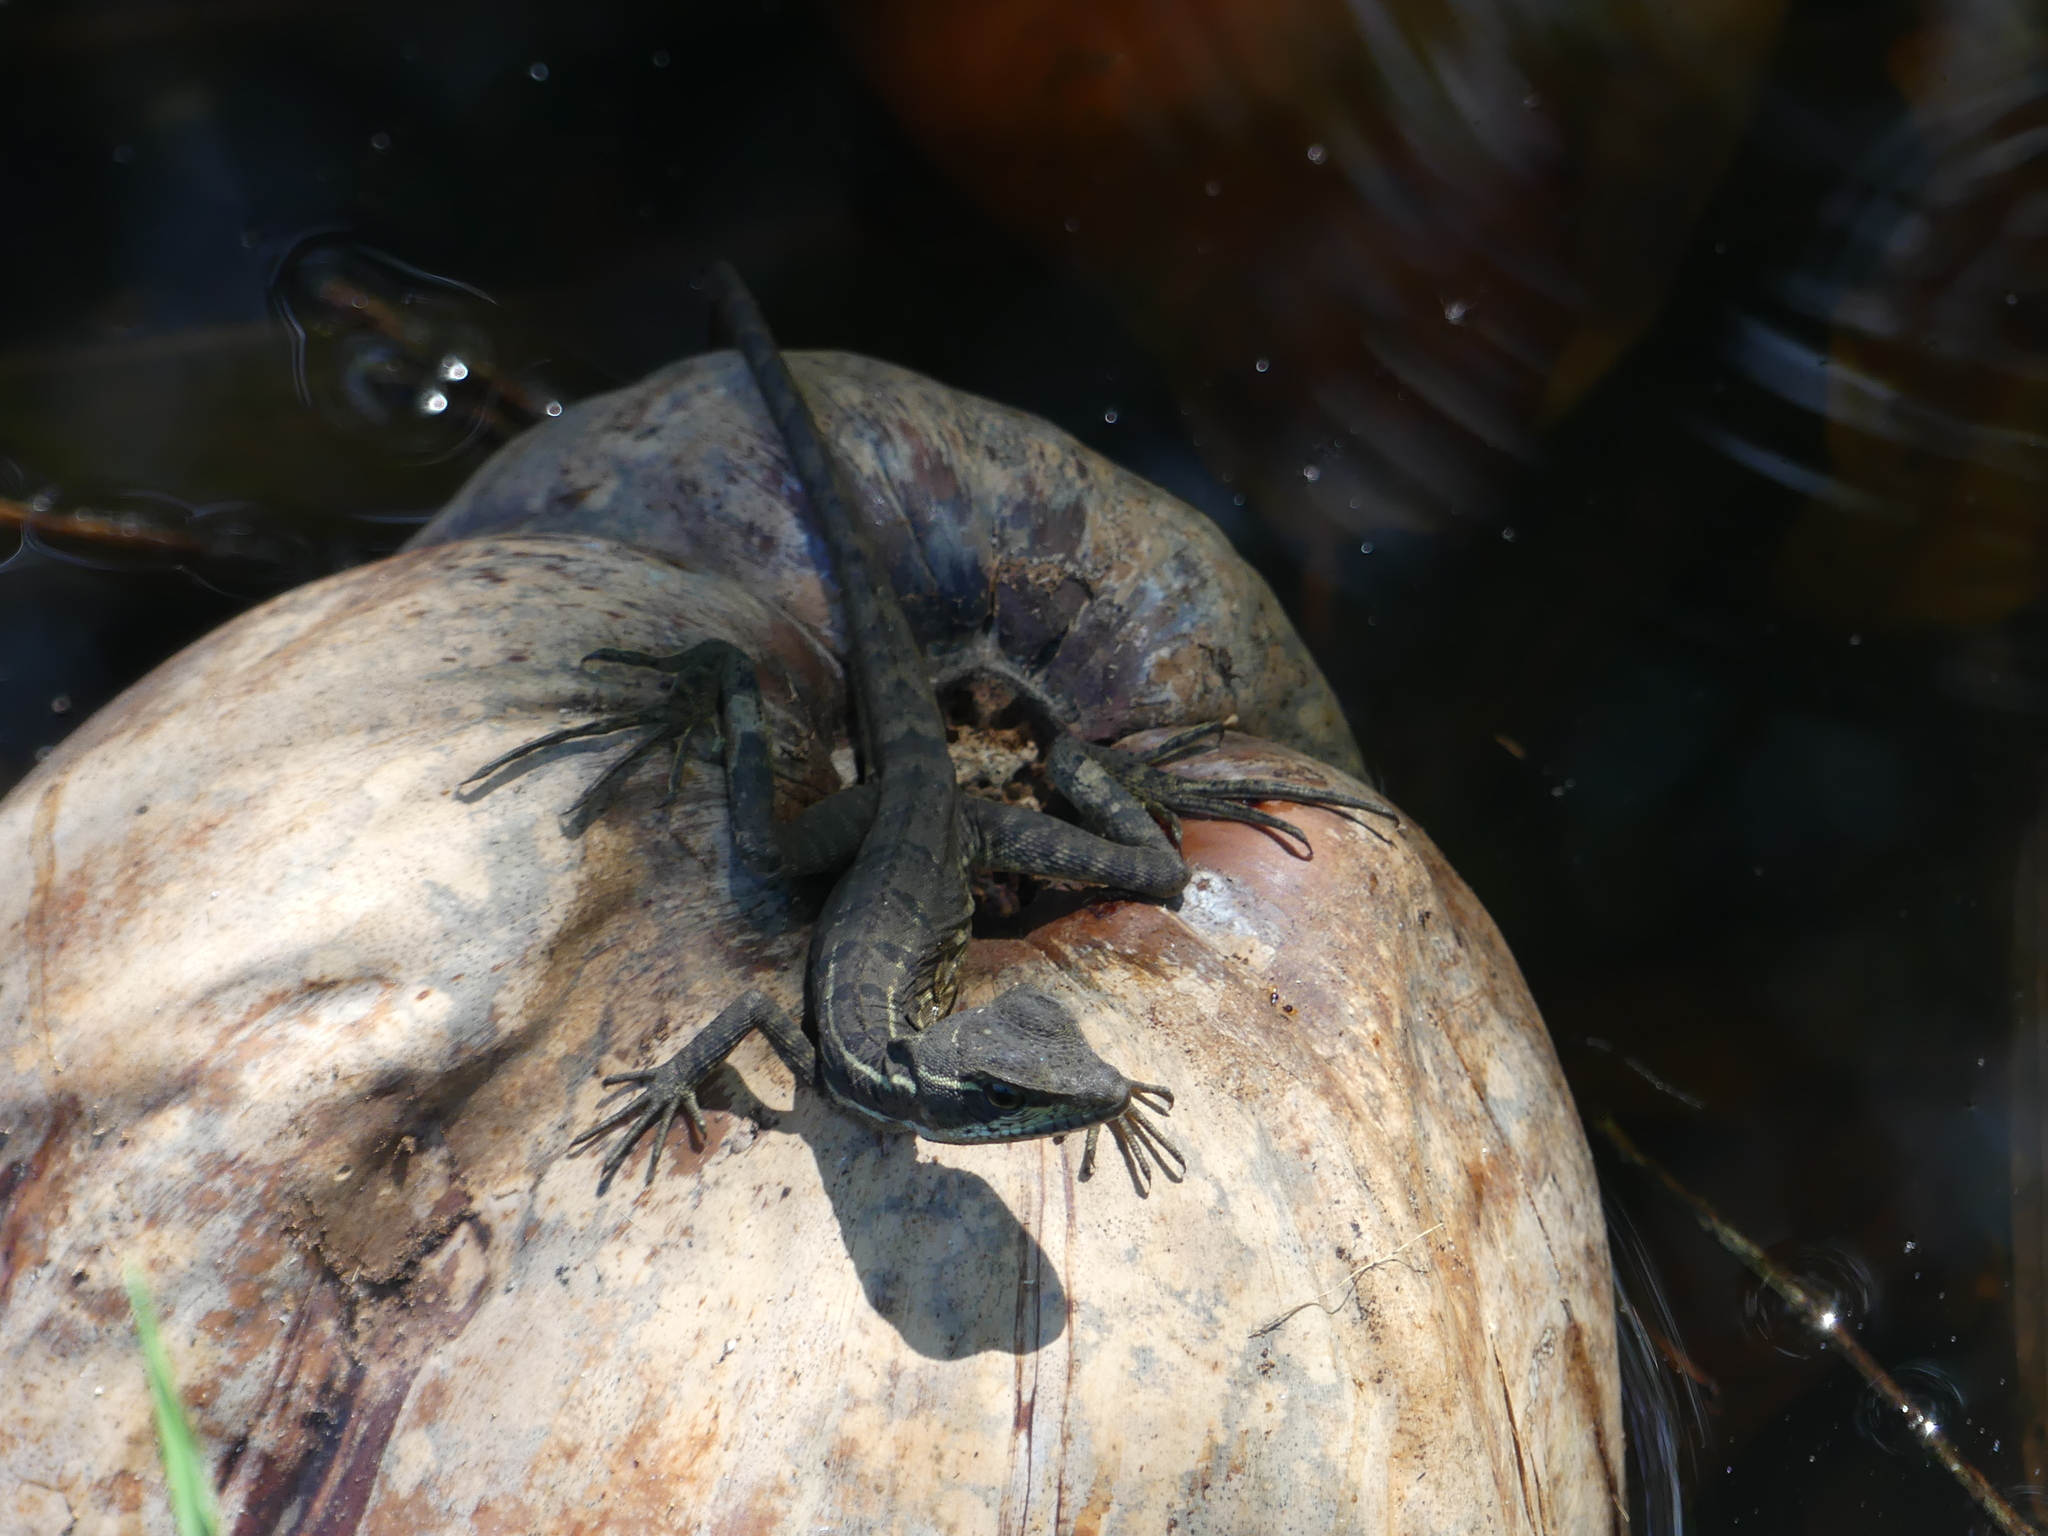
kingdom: Animalia
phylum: Chordata
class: Squamata
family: Corytophanidae
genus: Basiliscus
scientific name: Basiliscus basiliscus
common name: Common basilisk
